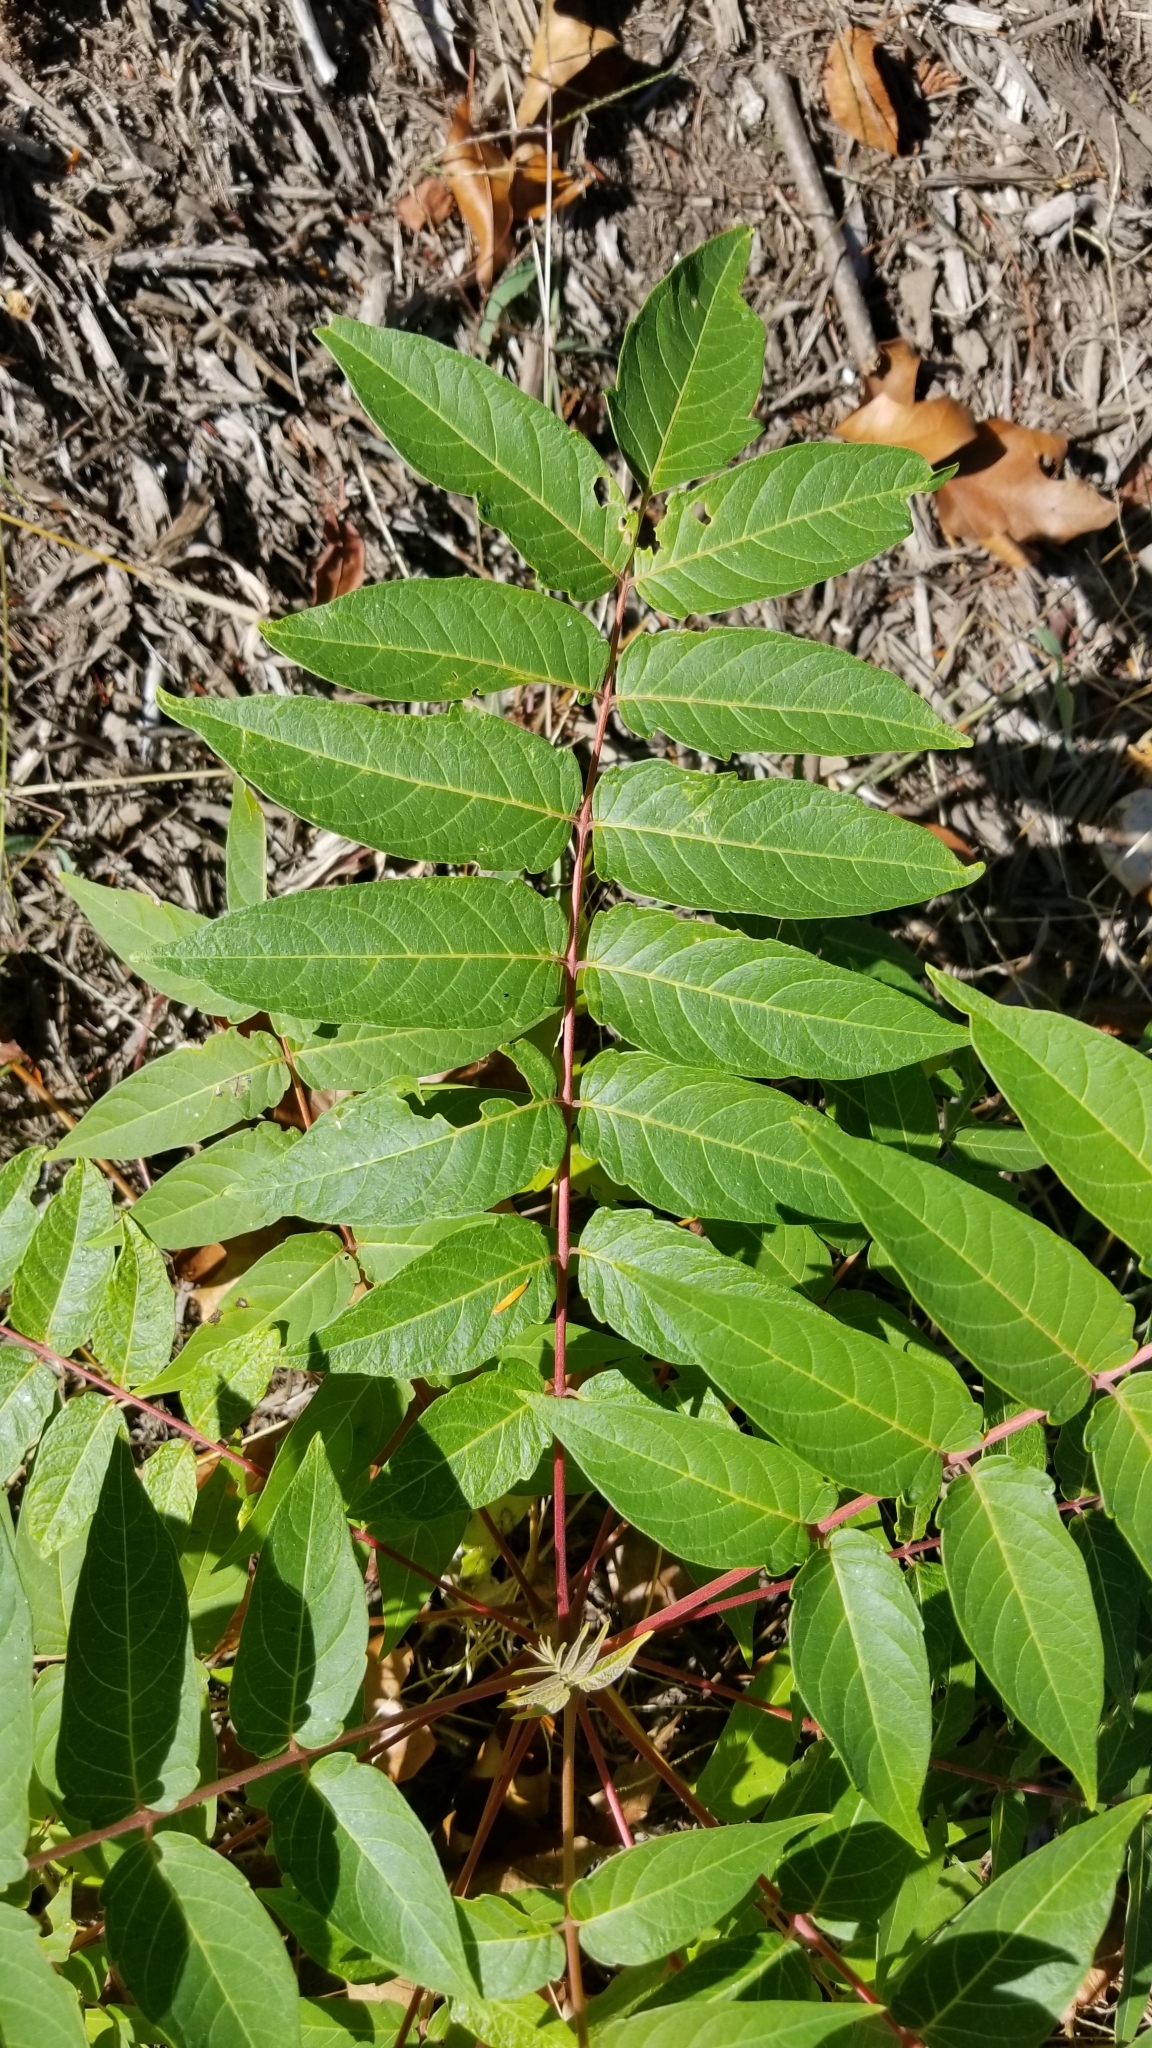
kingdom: Plantae
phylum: Tracheophyta
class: Magnoliopsida
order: Sapindales
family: Simaroubaceae
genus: Ailanthus
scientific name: Ailanthus altissima
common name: Tree-of-heaven
